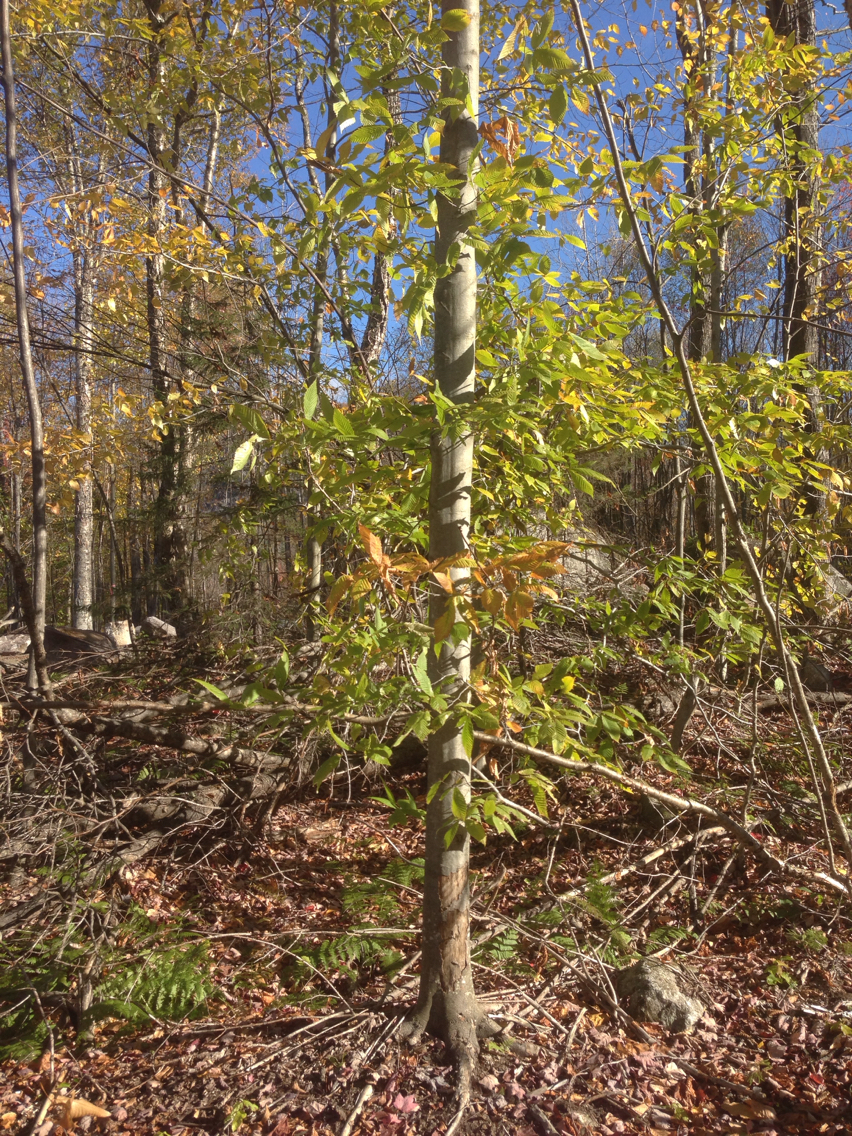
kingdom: Plantae
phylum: Tracheophyta
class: Magnoliopsida
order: Fagales
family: Fagaceae
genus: Fagus
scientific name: Fagus grandifolia
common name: American beech
